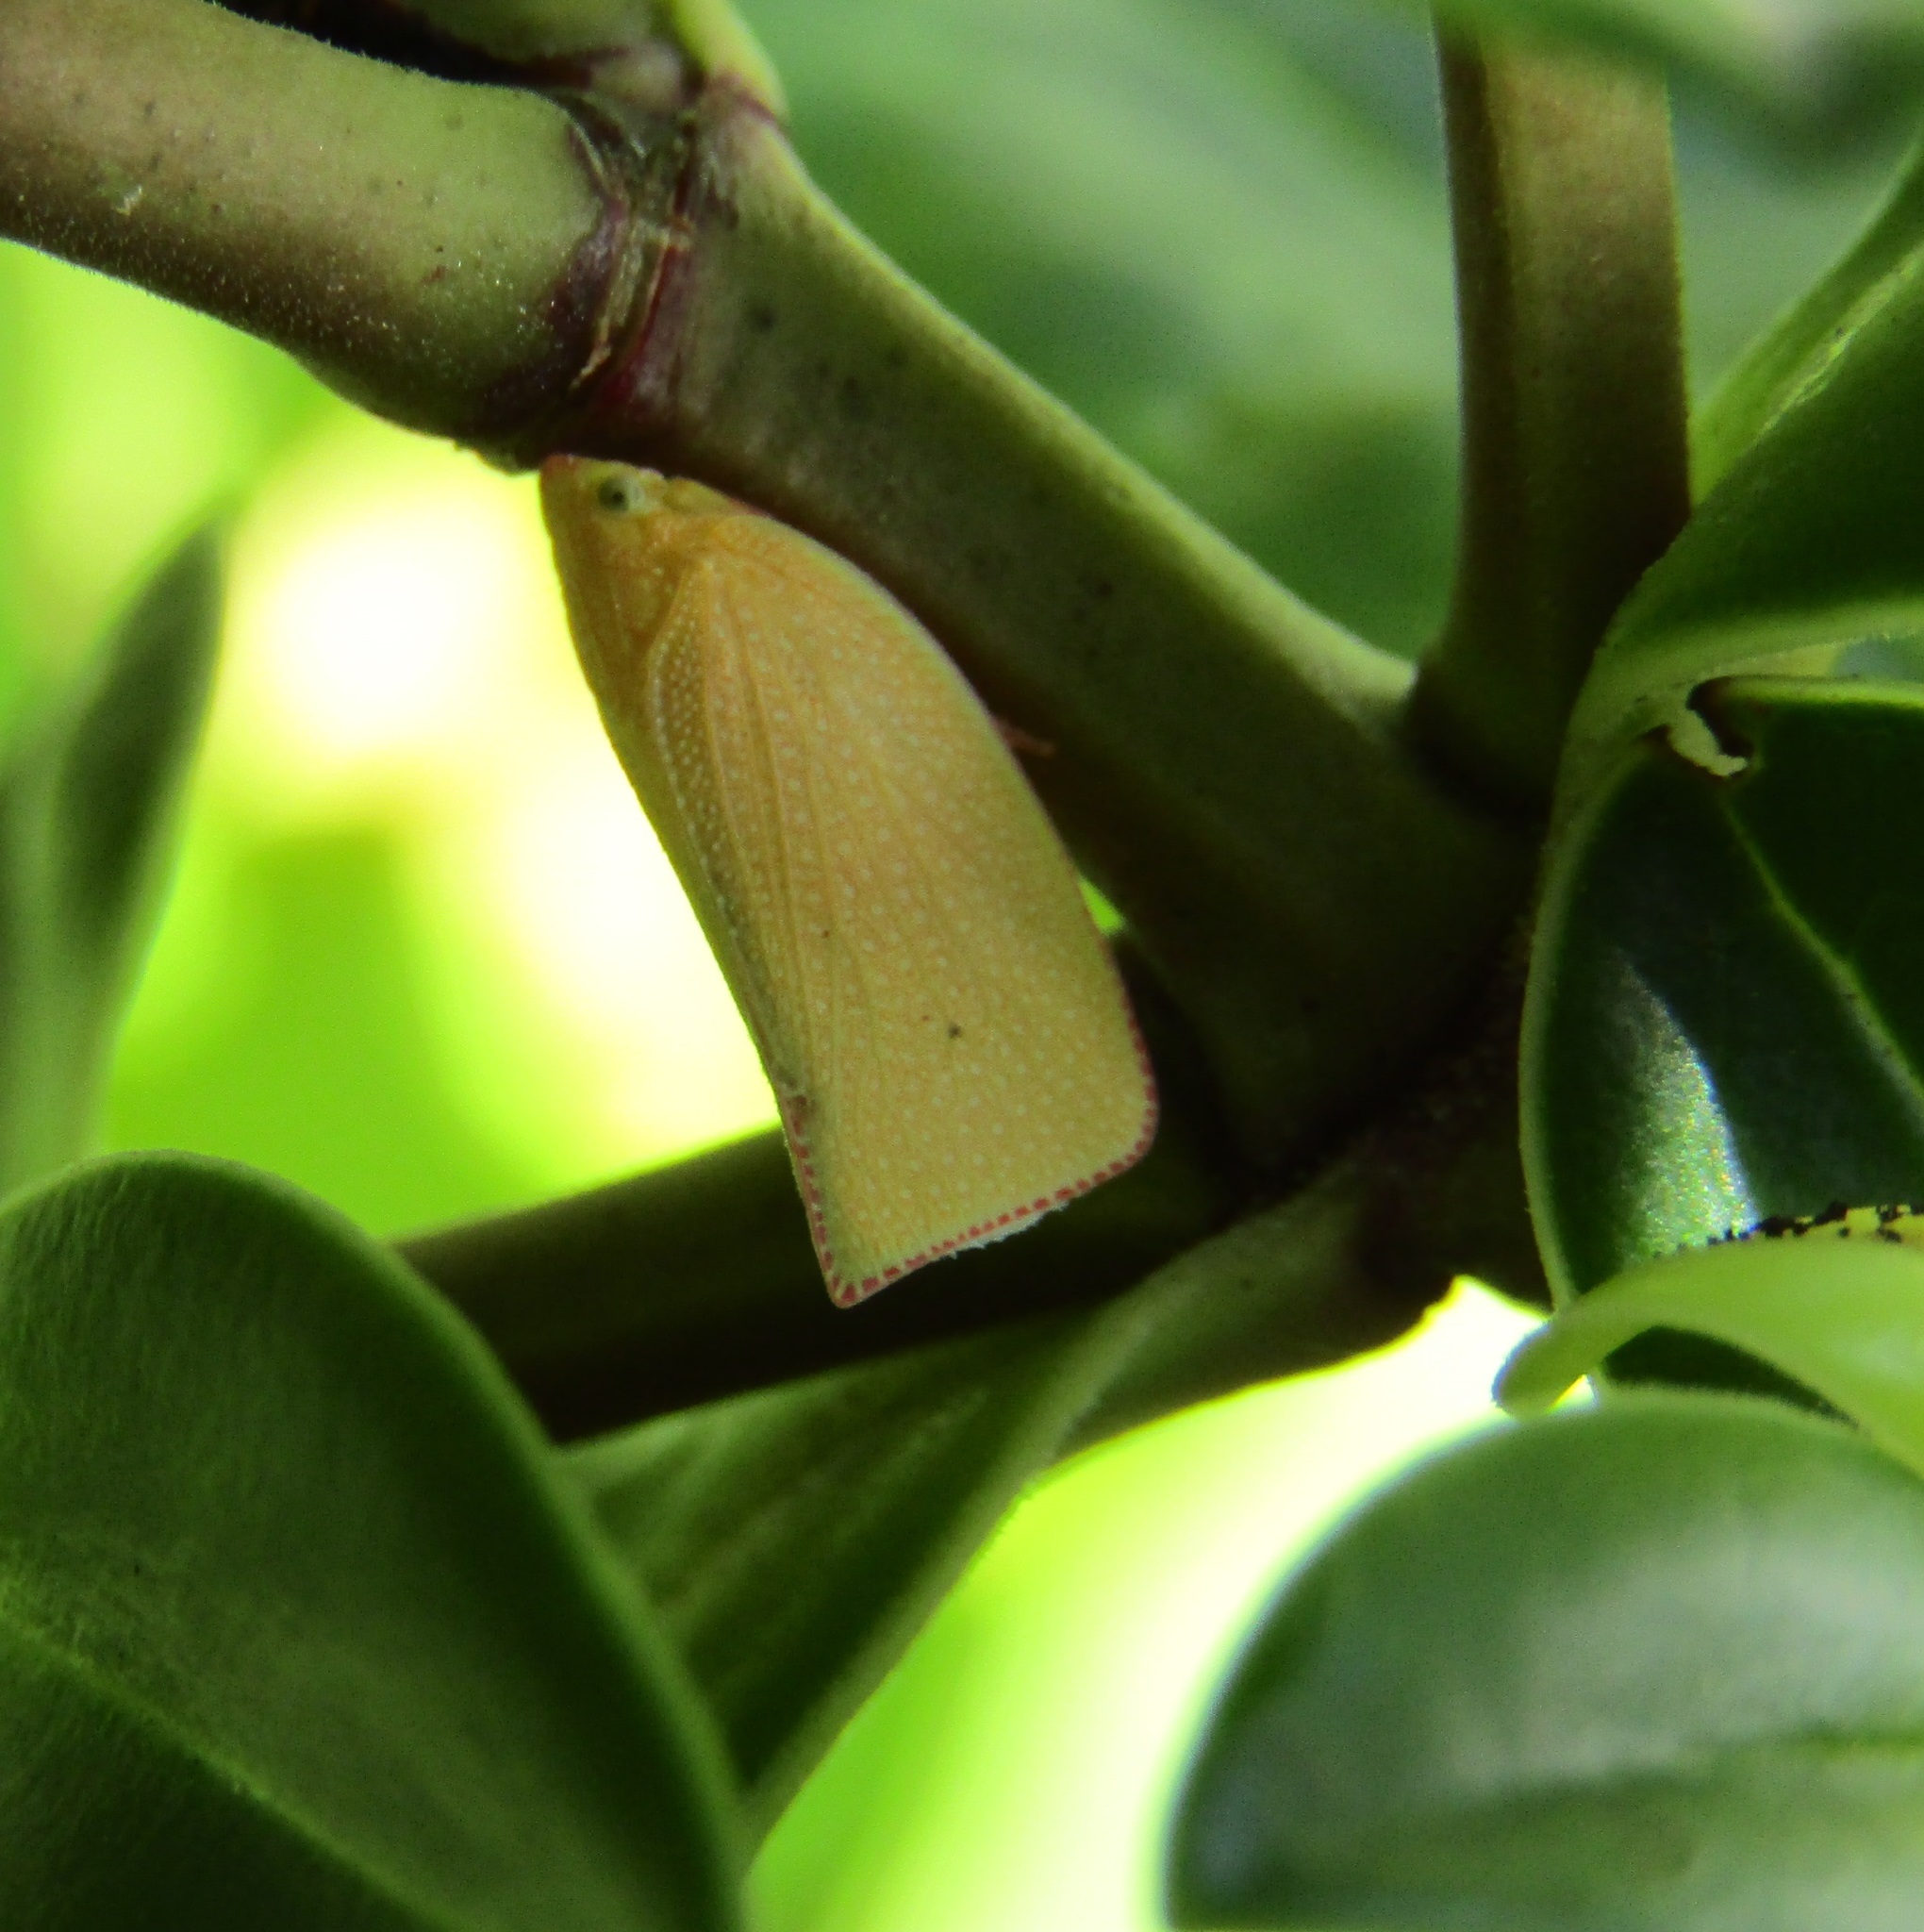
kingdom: Animalia
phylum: Arthropoda
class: Insecta
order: Hemiptera
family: Flatidae
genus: Siphanta
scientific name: Siphanta acuta
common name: Torpedo bug
